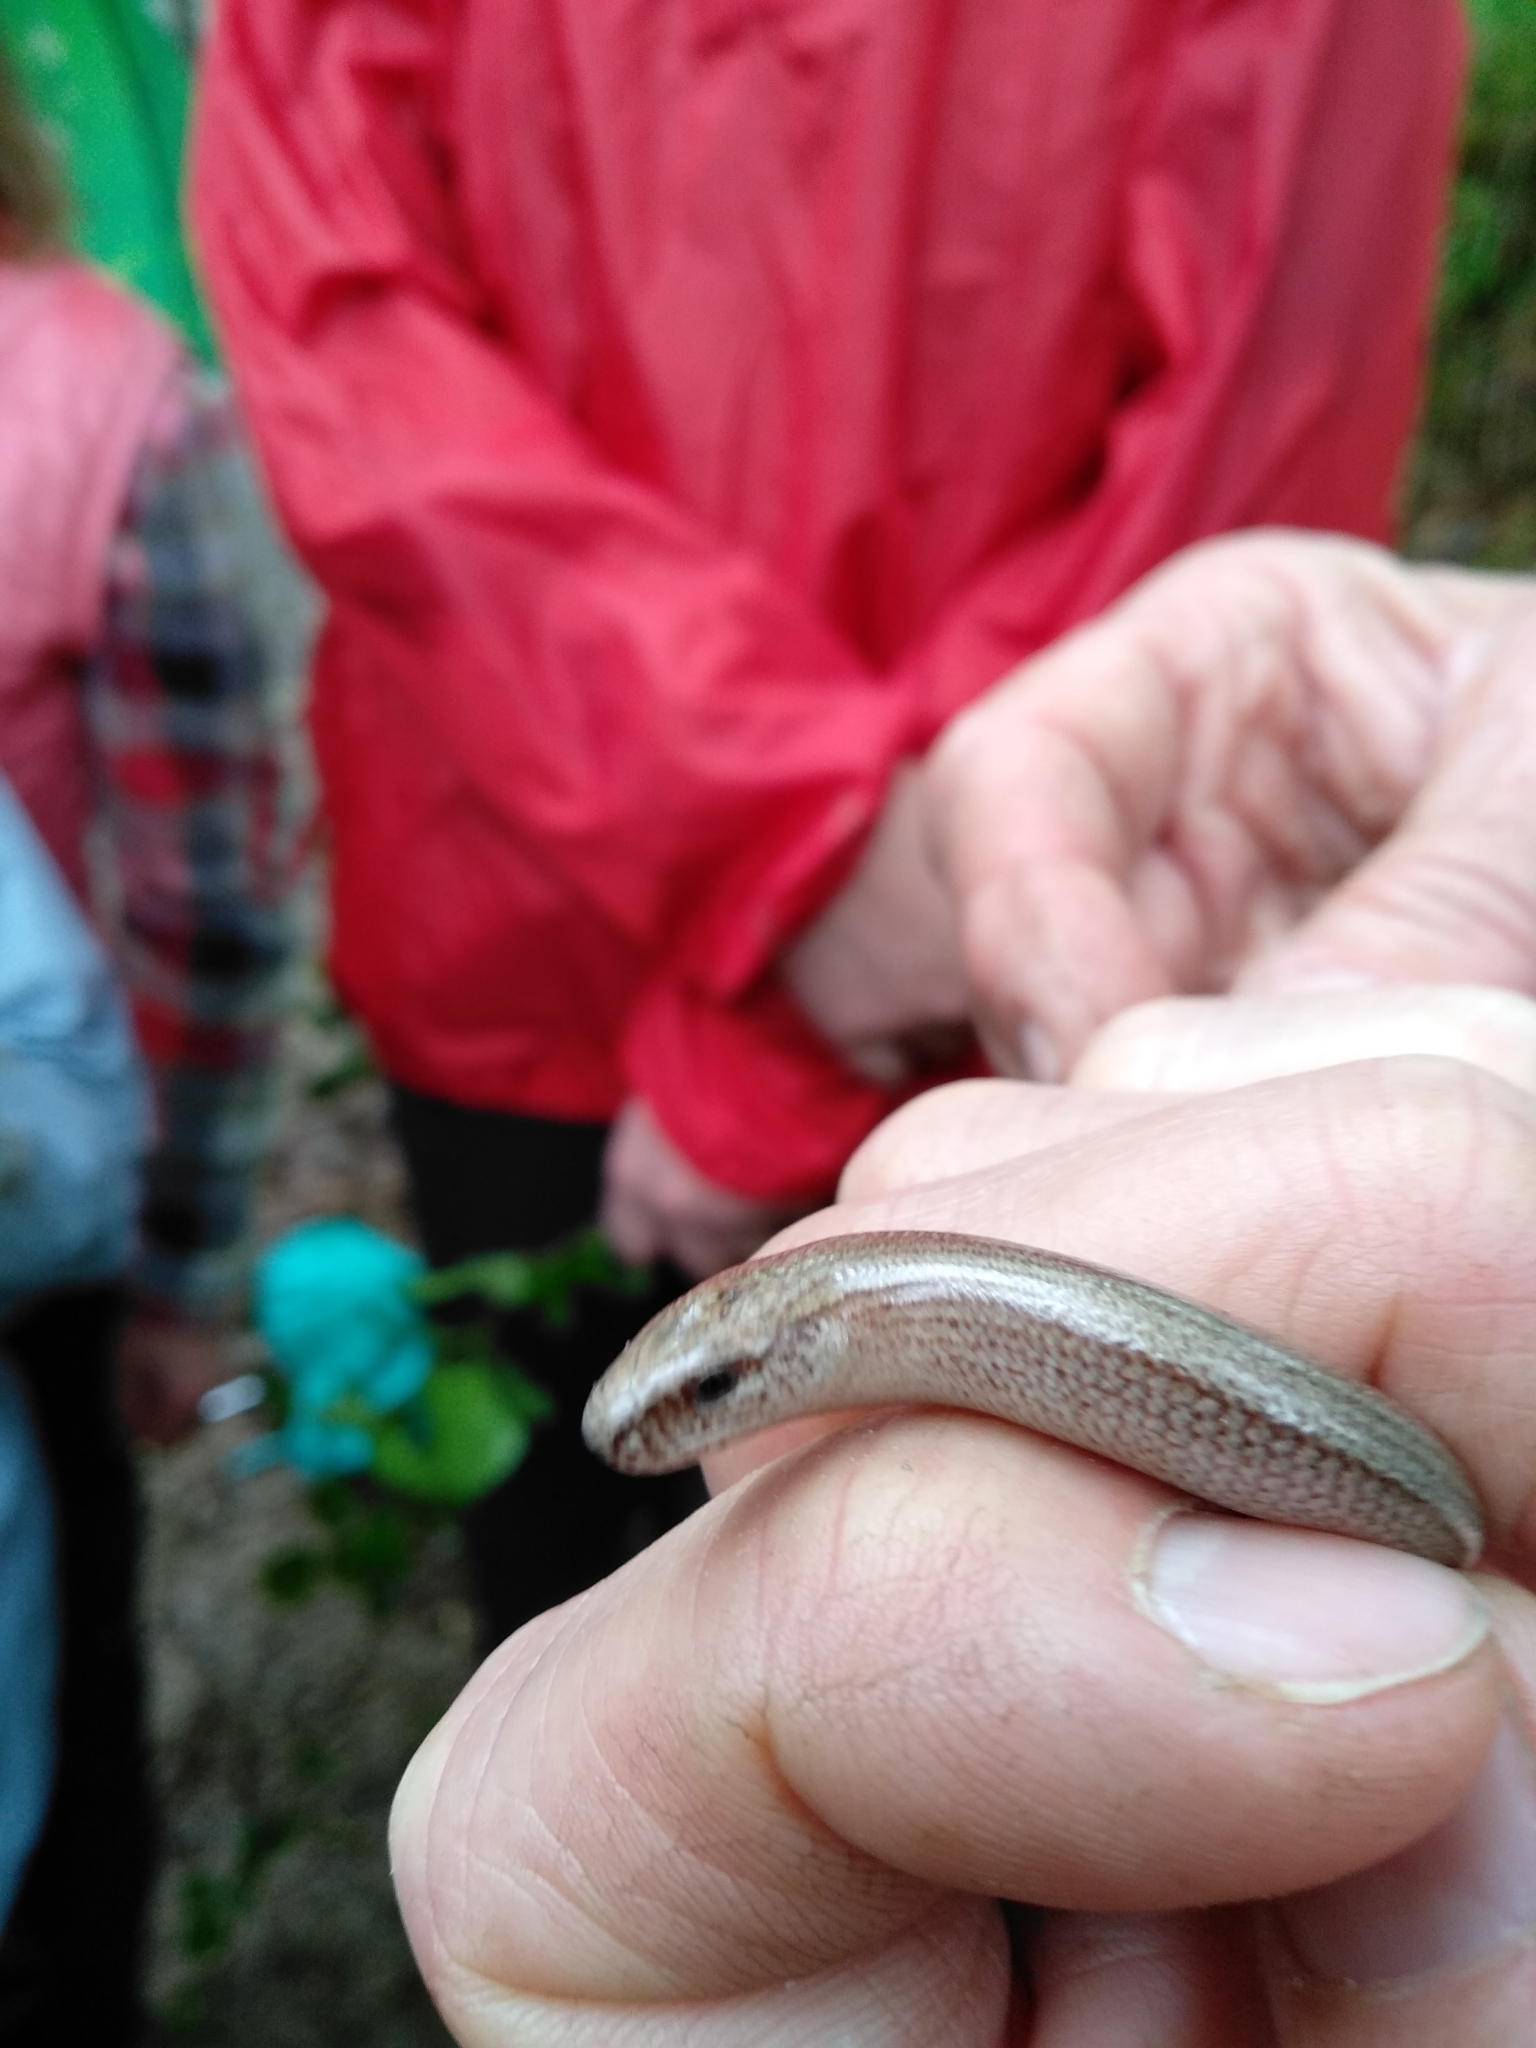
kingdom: Animalia
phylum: Chordata
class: Squamata
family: Anguidae
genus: Anguis
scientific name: Anguis veronensis
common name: Italian slow worm
